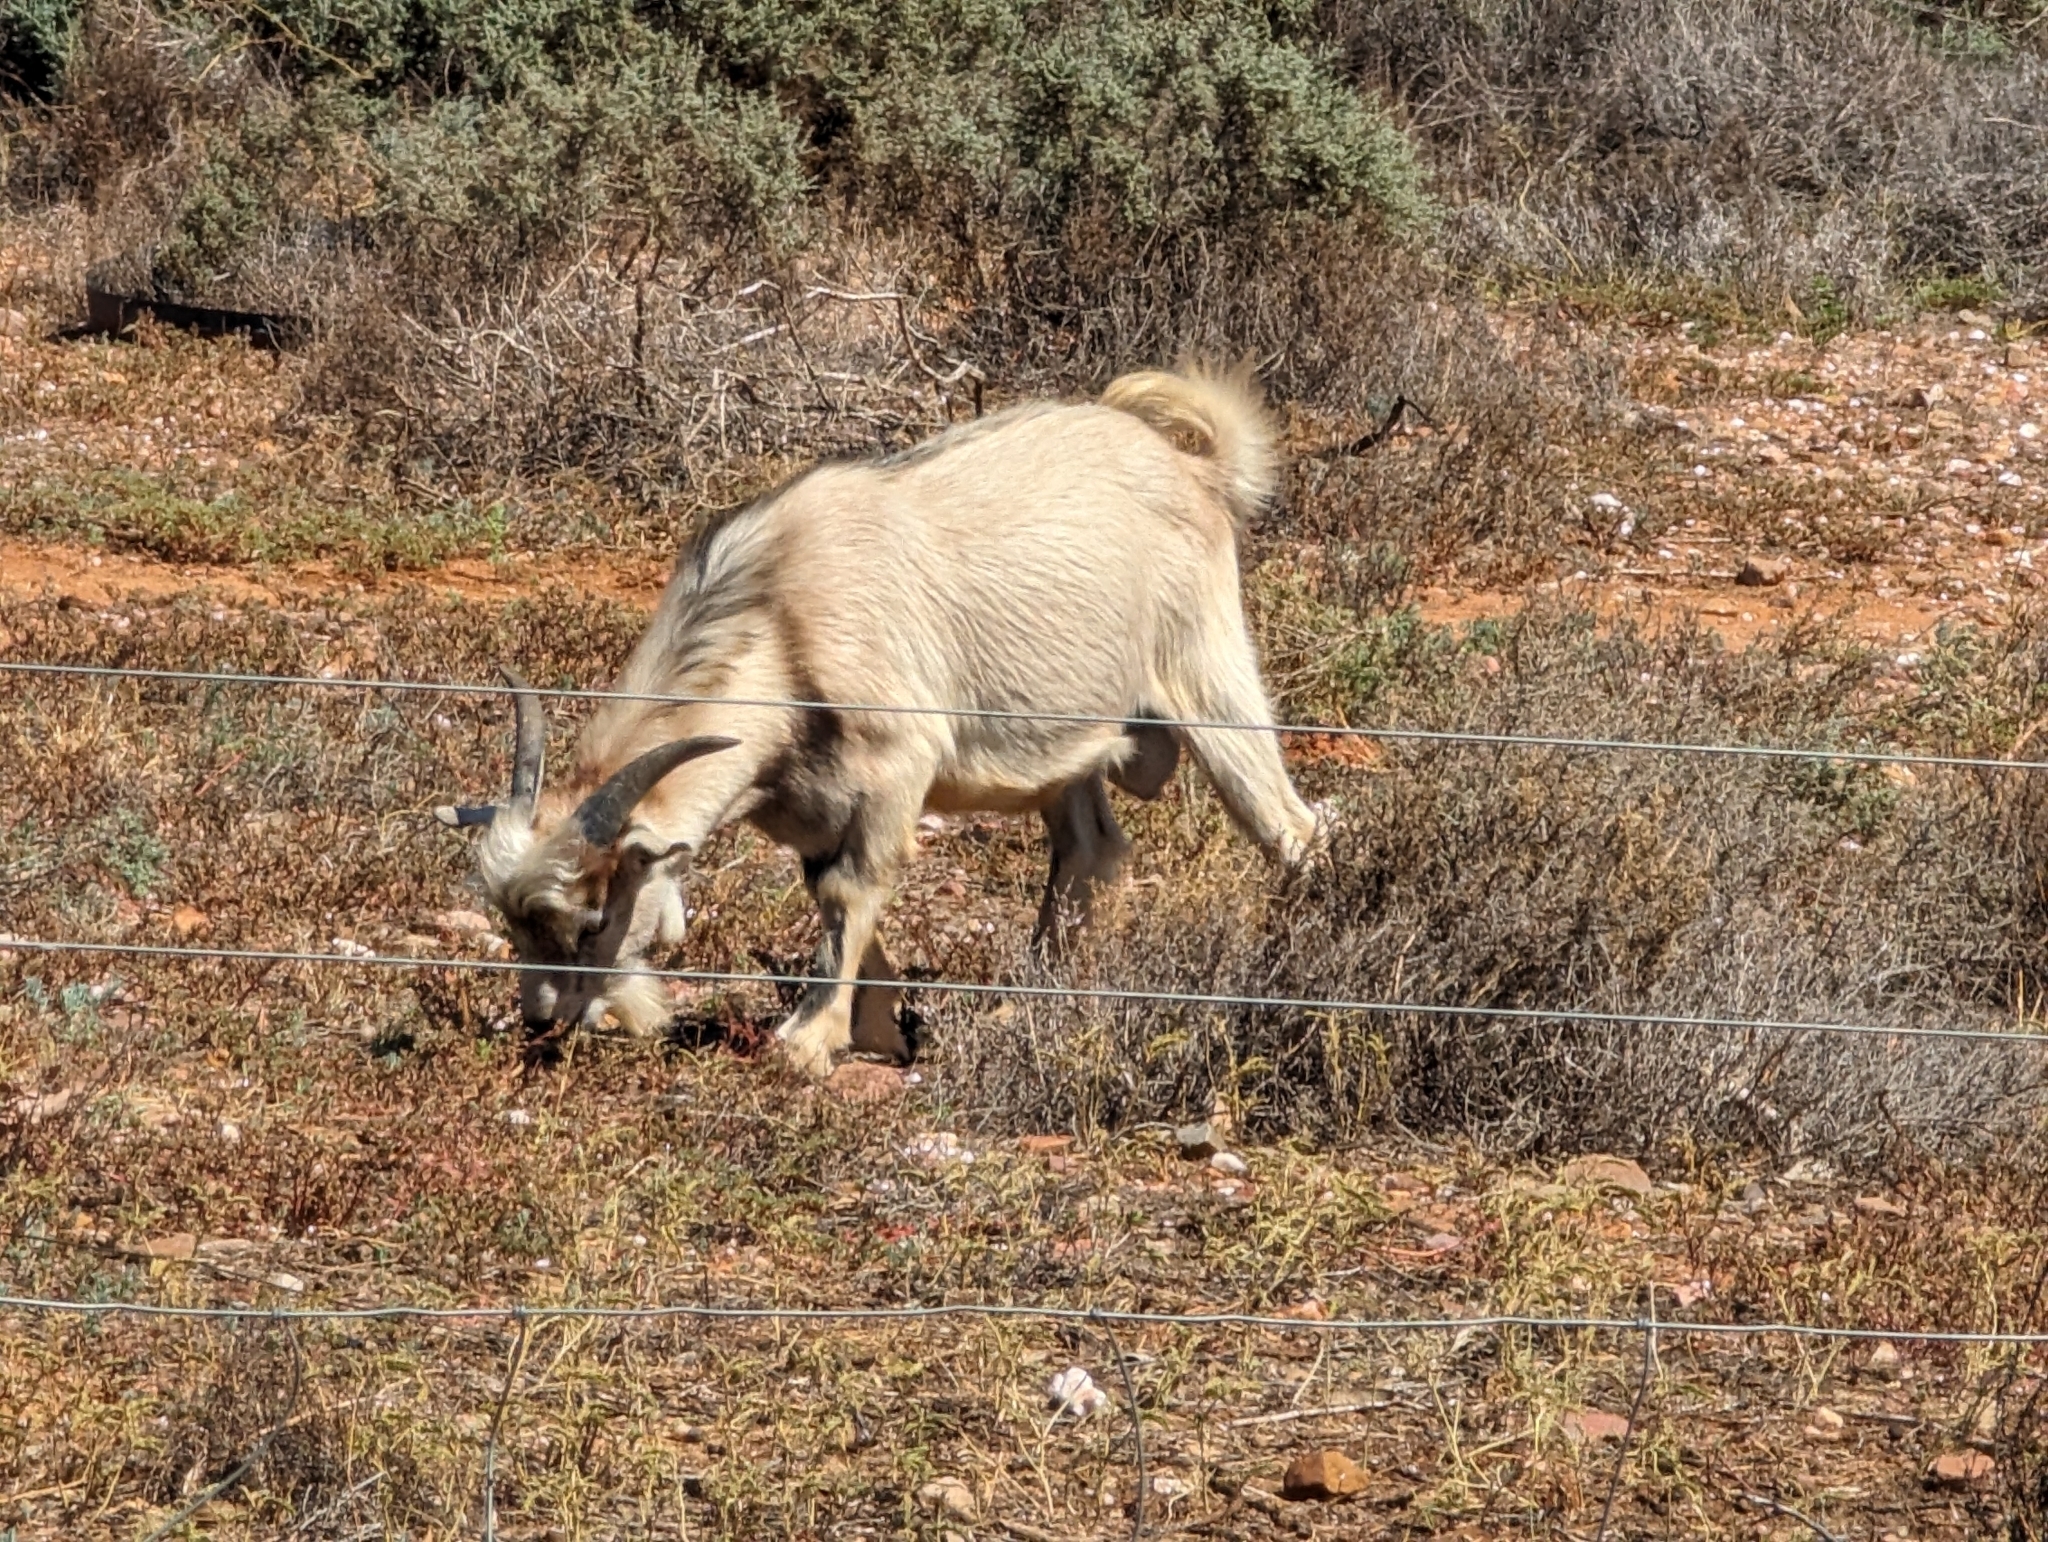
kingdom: Animalia
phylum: Chordata
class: Mammalia
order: Artiodactyla
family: Bovidae
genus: Capra
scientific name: Capra hircus
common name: Domestic goat
